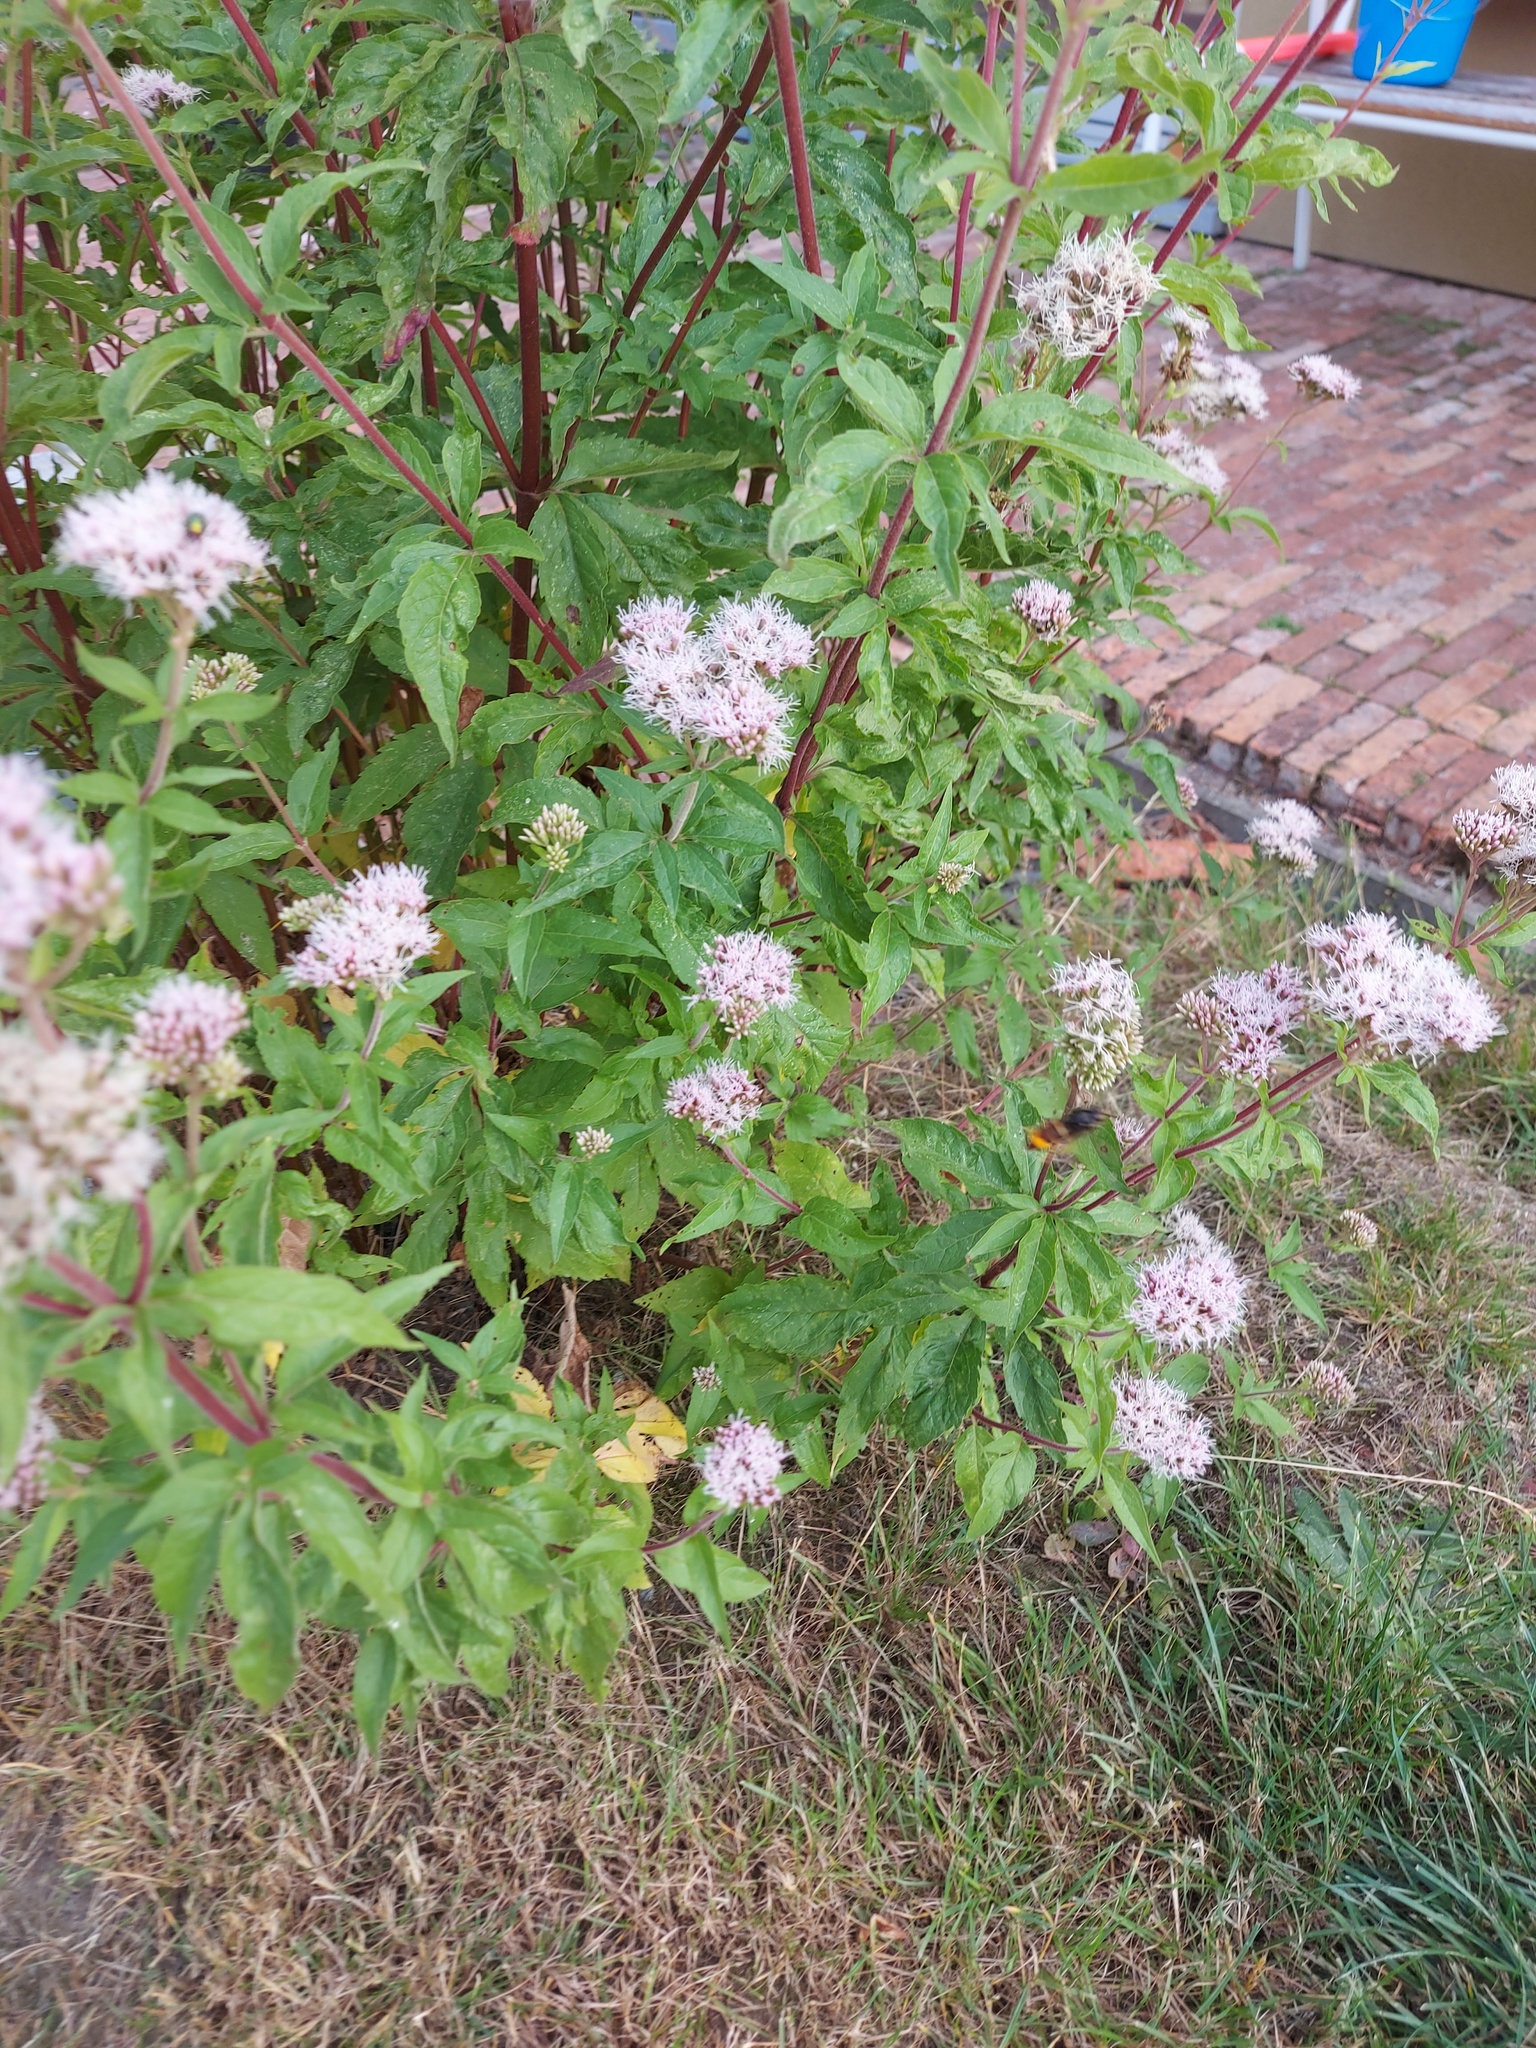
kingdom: Animalia
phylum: Arthropoda
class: Insecta
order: Hymenoptera
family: Vespidae
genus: Vespa
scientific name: Vespa velutina
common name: Asian hornet
